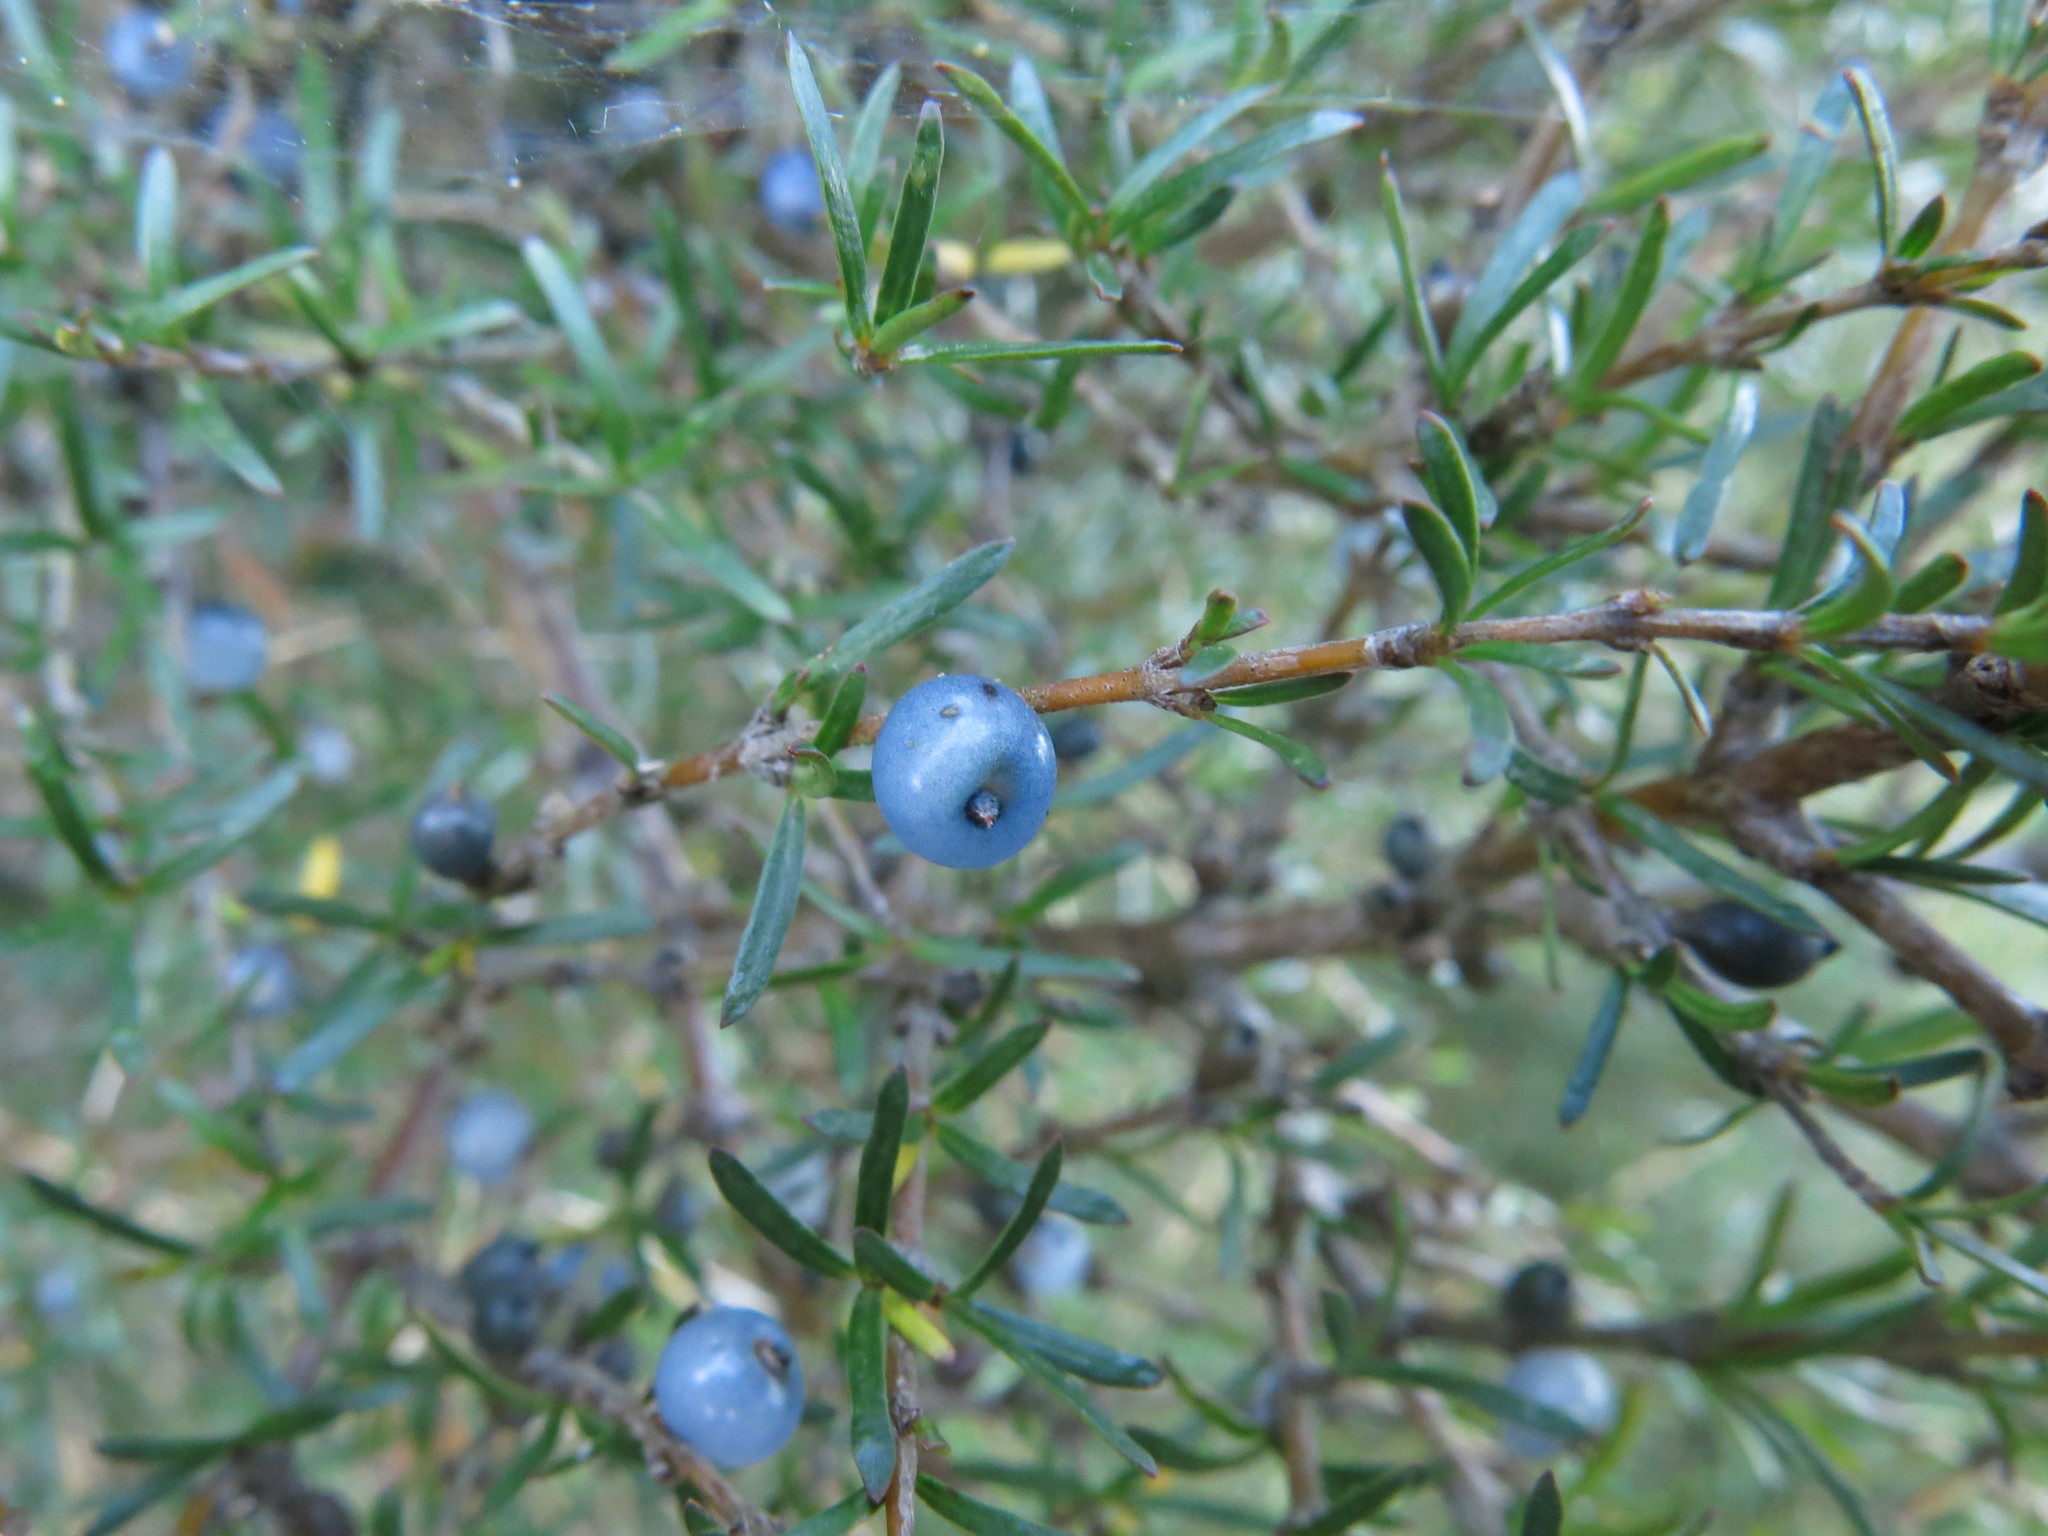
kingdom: Plantae
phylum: Tracheophyta
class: Magnoliopsida
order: Gentianales
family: Rubiaceae
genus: Coprosma
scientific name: Coprosma rugosa
